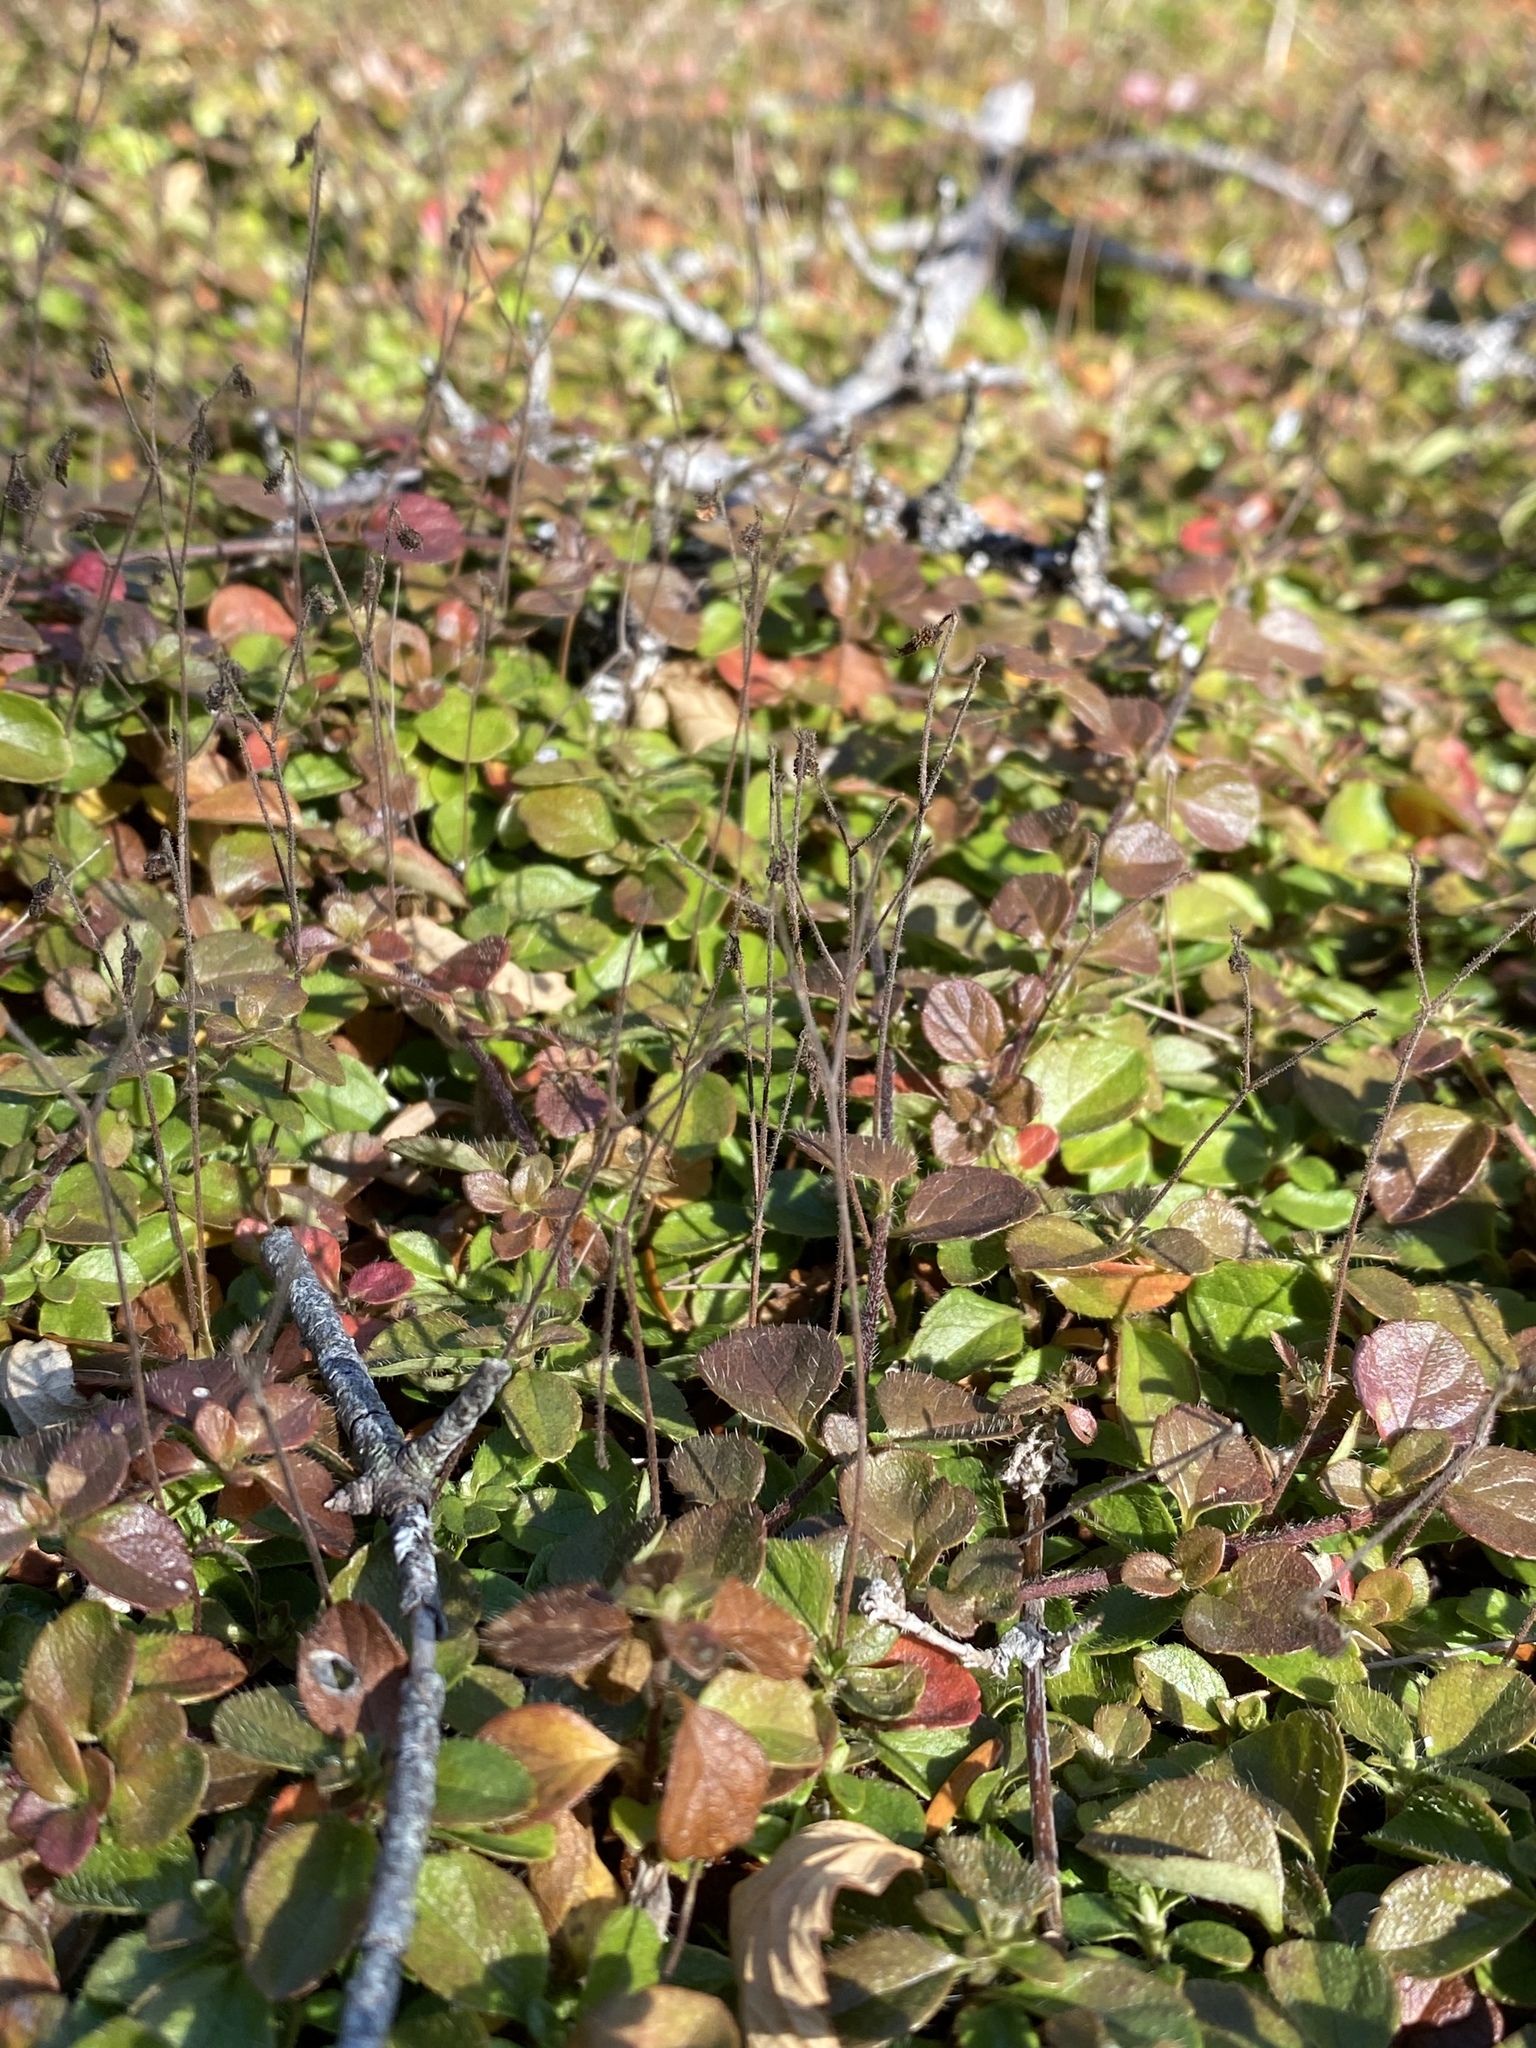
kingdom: Plantae
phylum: Tracheophyta
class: Magnoliopsida
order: Dipsacales
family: Caprifoliaceae
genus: Linnaea
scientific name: Linnaea borealis
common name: Twinflower
